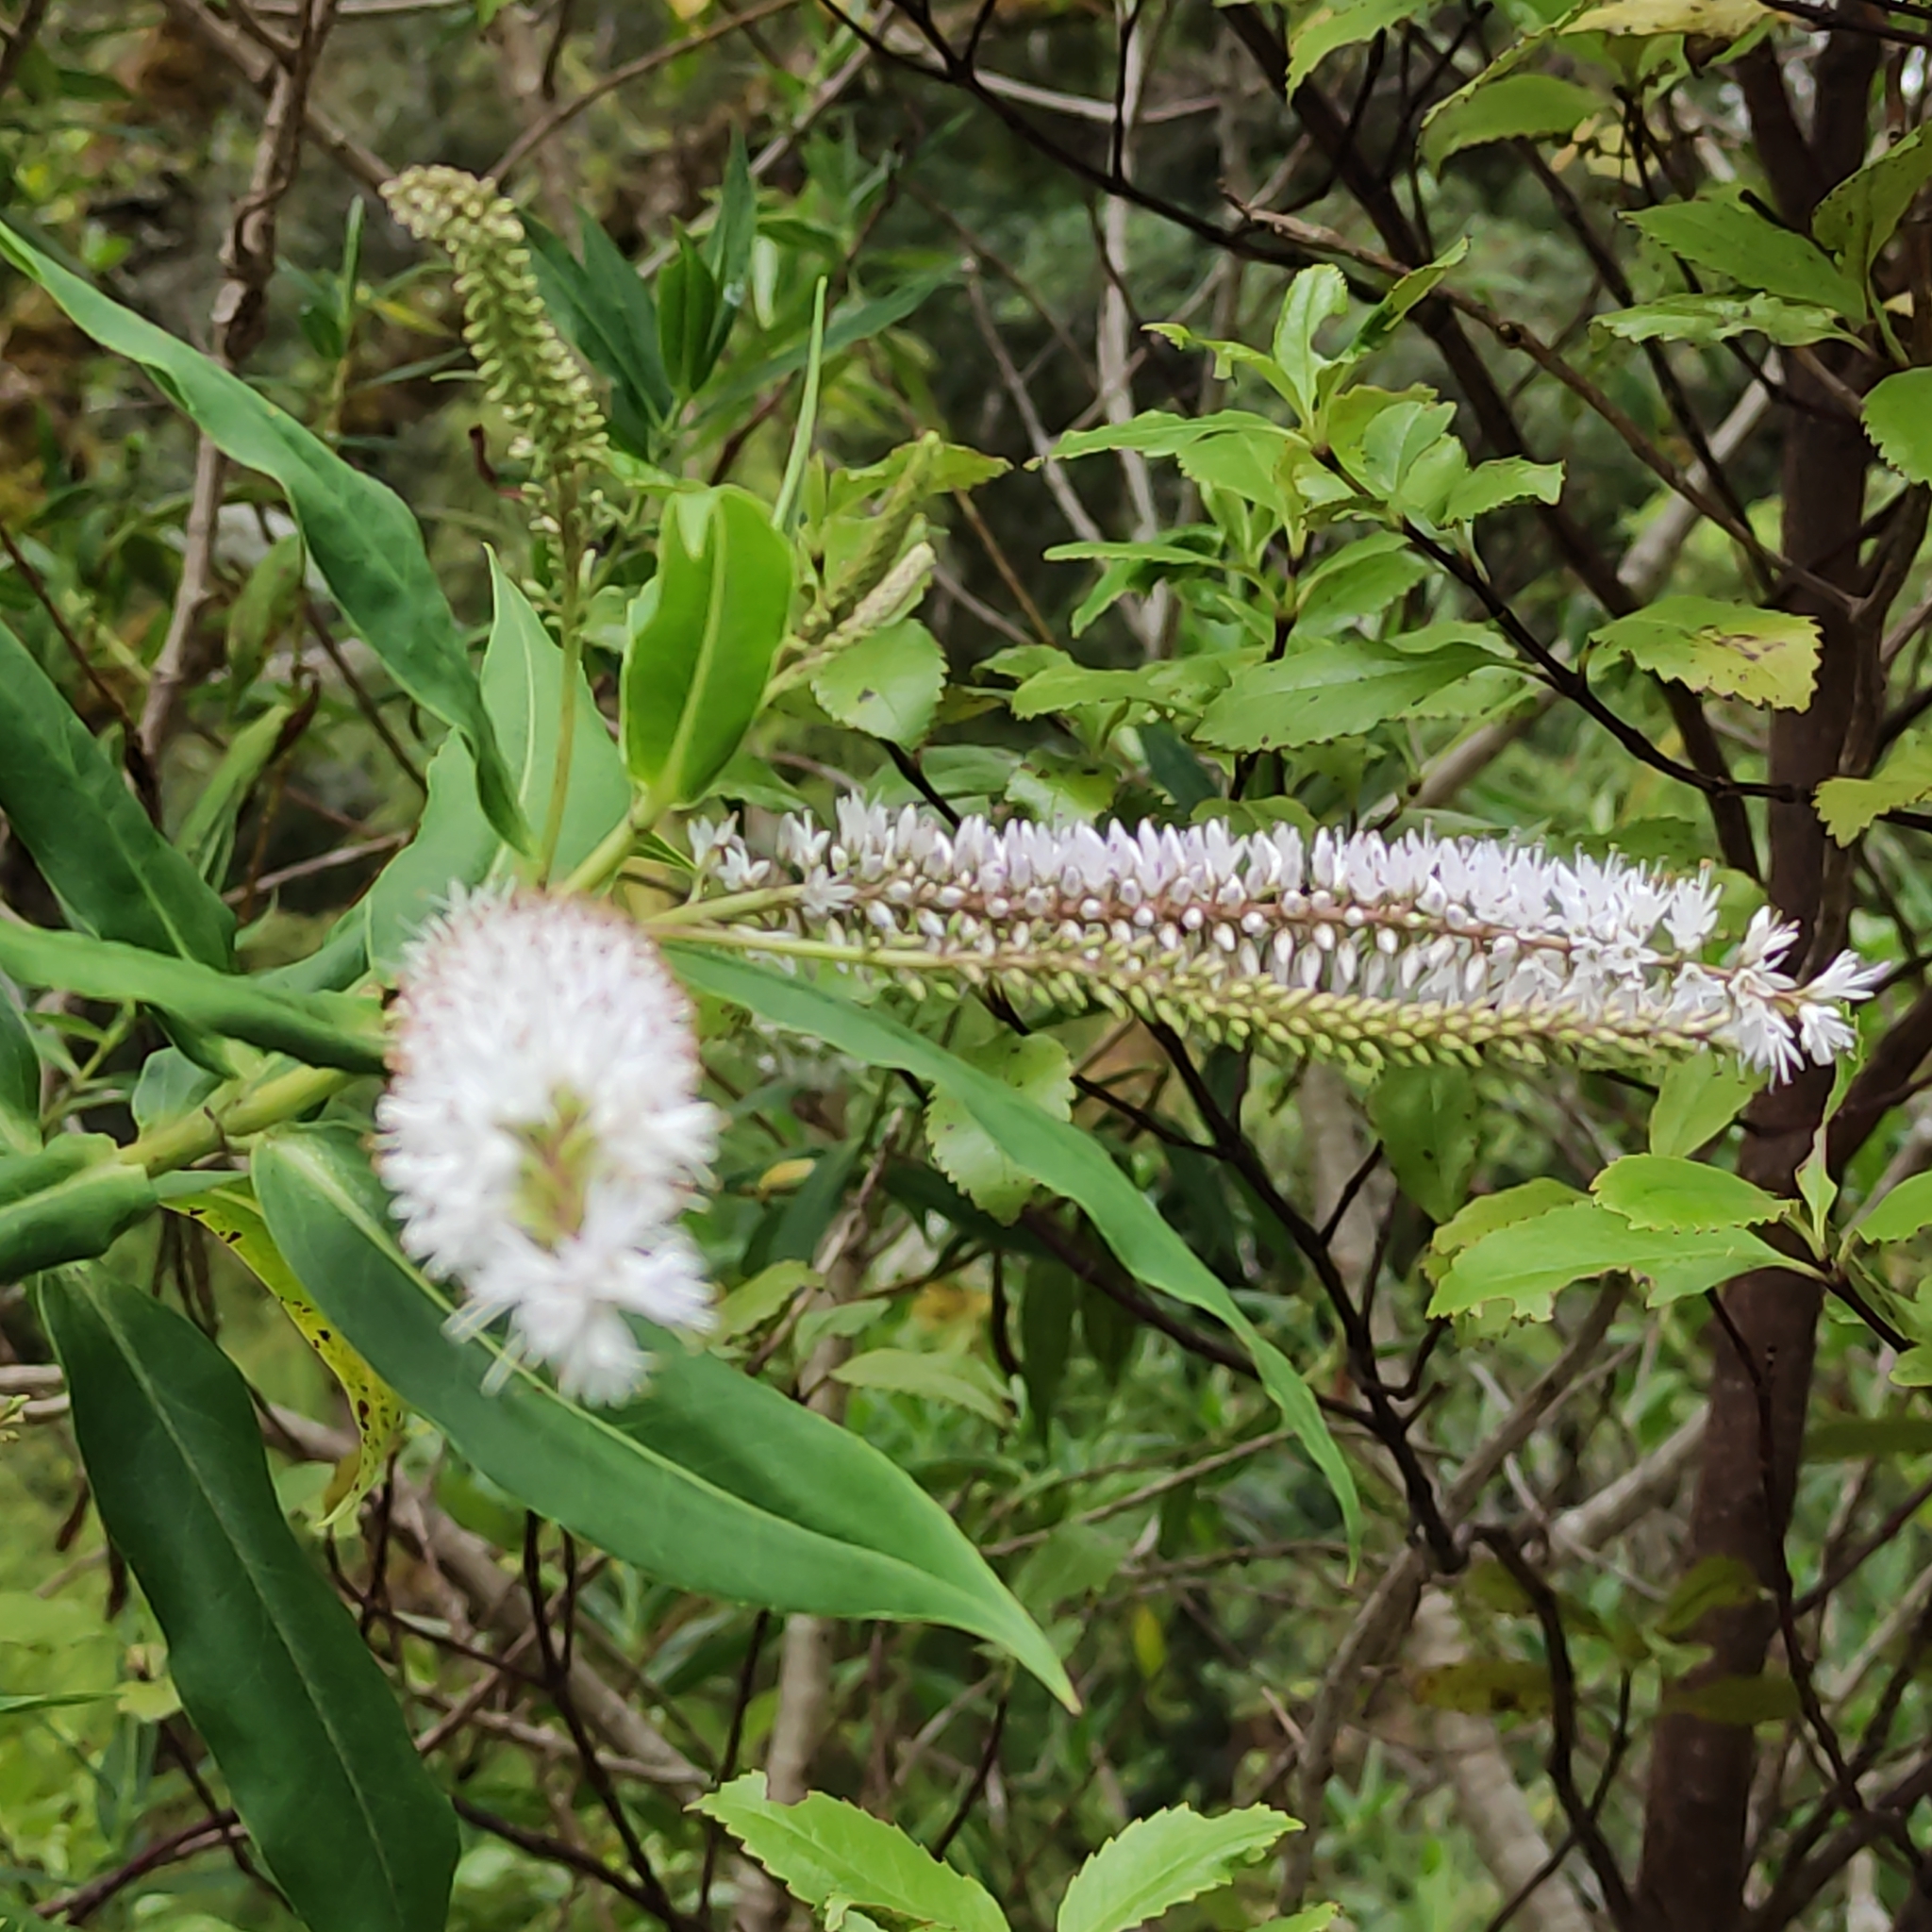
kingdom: Plantae
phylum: Tracheophyta
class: Magnoliopsida
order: Lamiales
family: Plantaginaceae
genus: Veronica
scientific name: Veronica salicifolia
